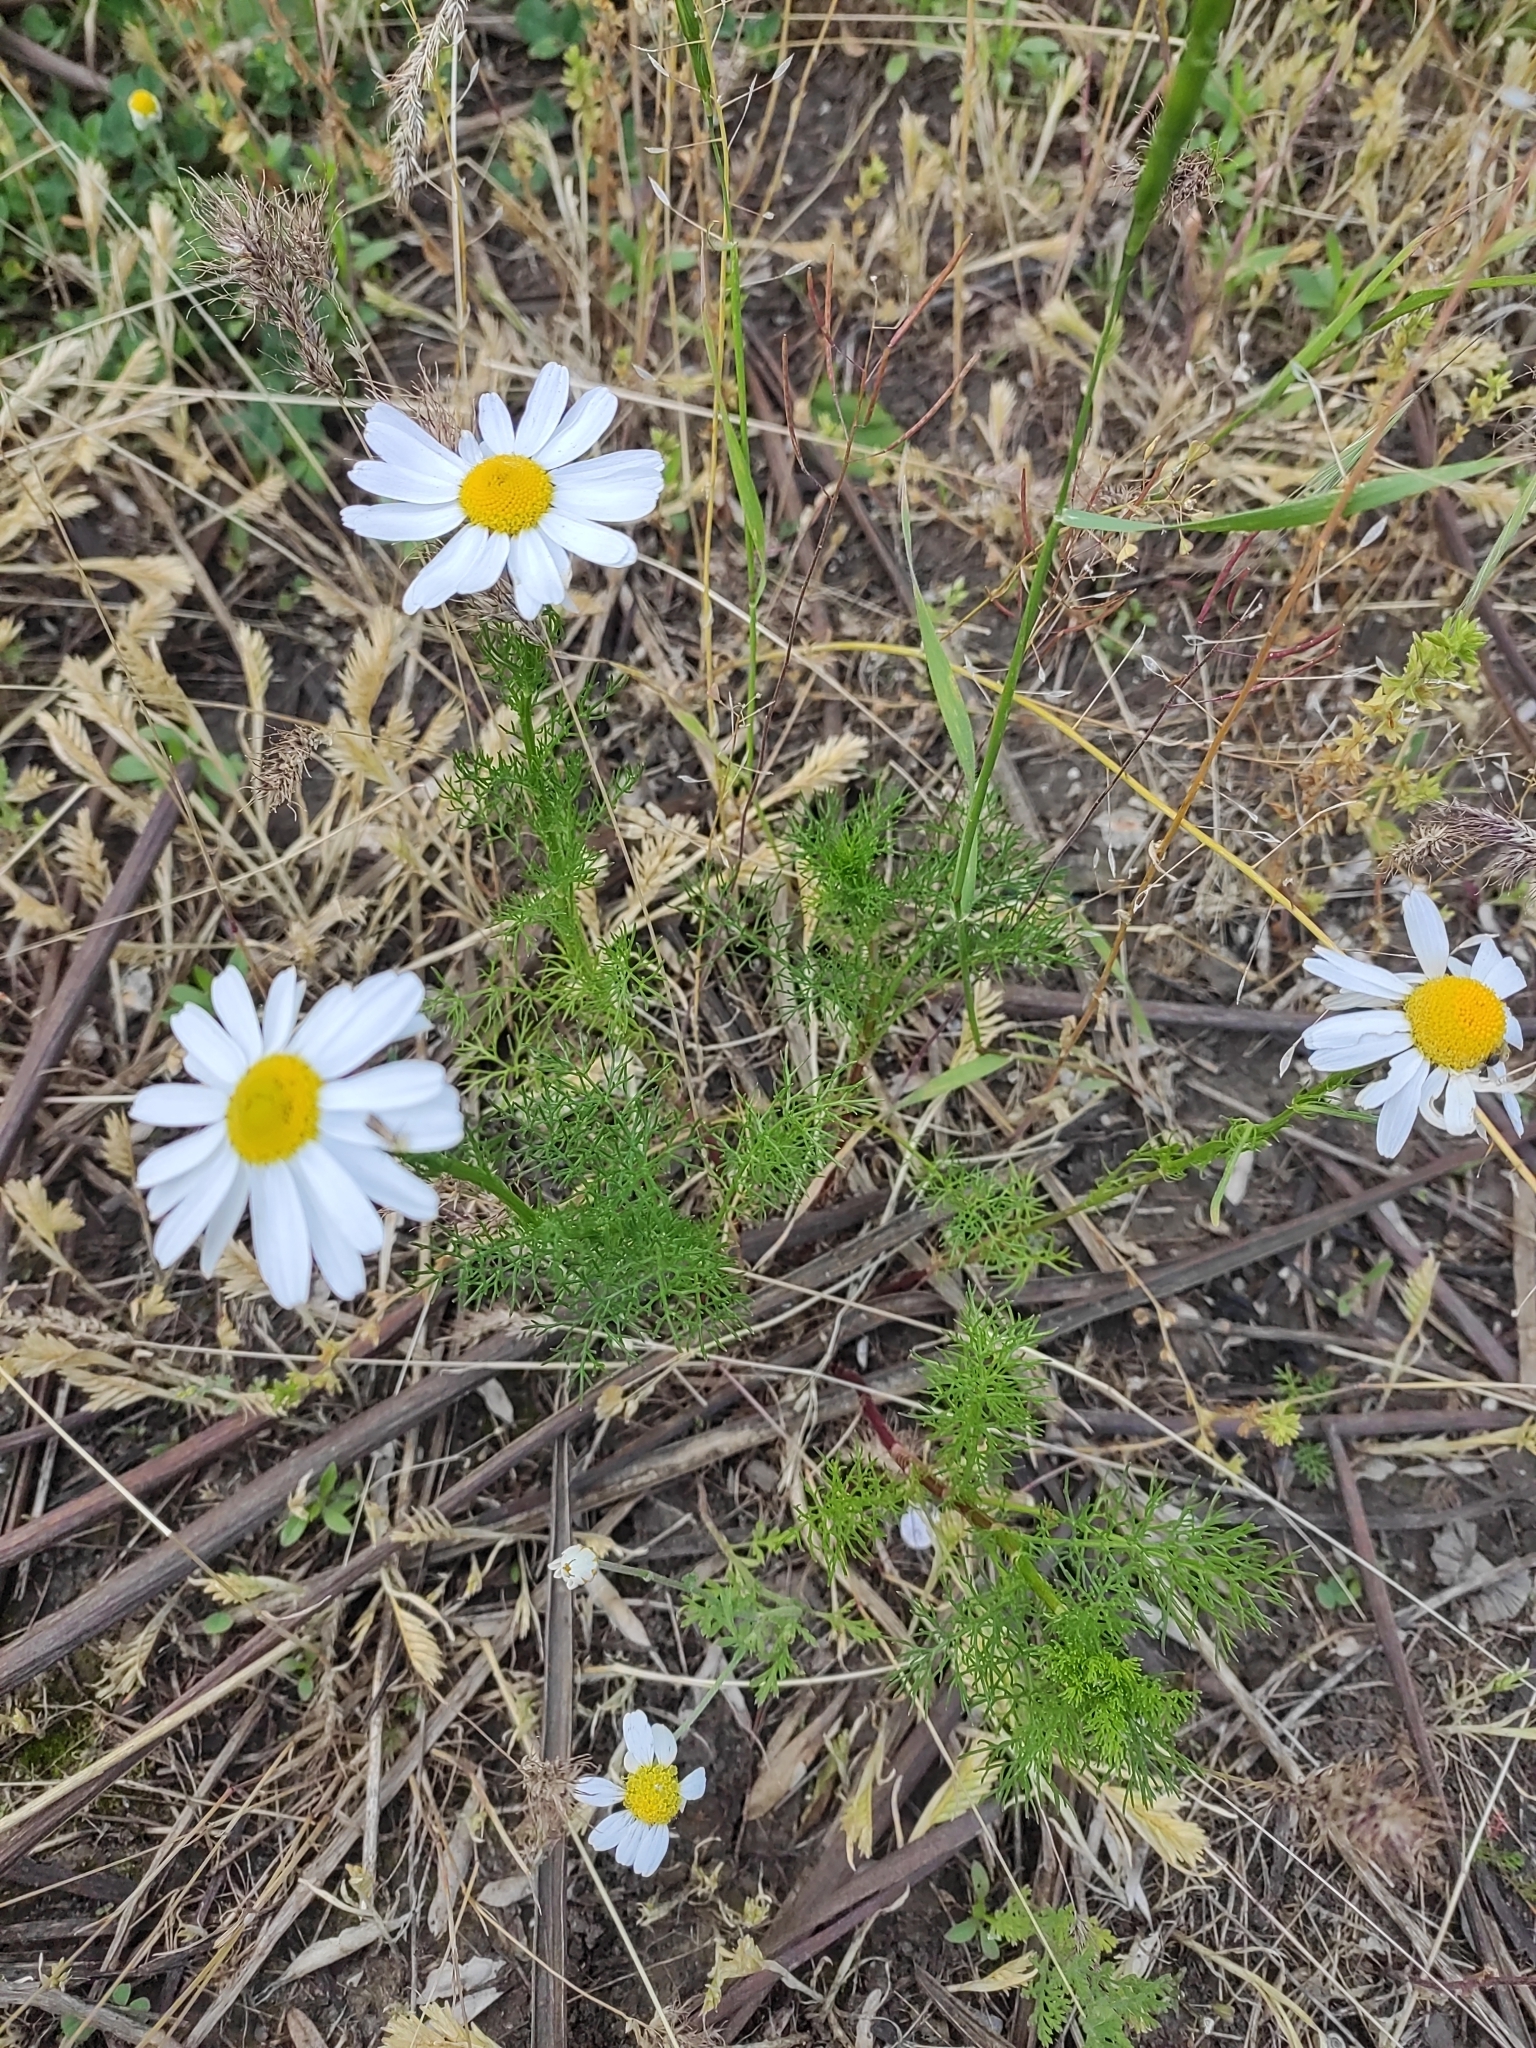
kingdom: Plantae
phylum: Tracheophyta
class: Magnoliopsida
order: Asterales
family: Asteraceae
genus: Tripleurospermum
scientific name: Tripleurospermum inodorum
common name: Scentless mayweed
